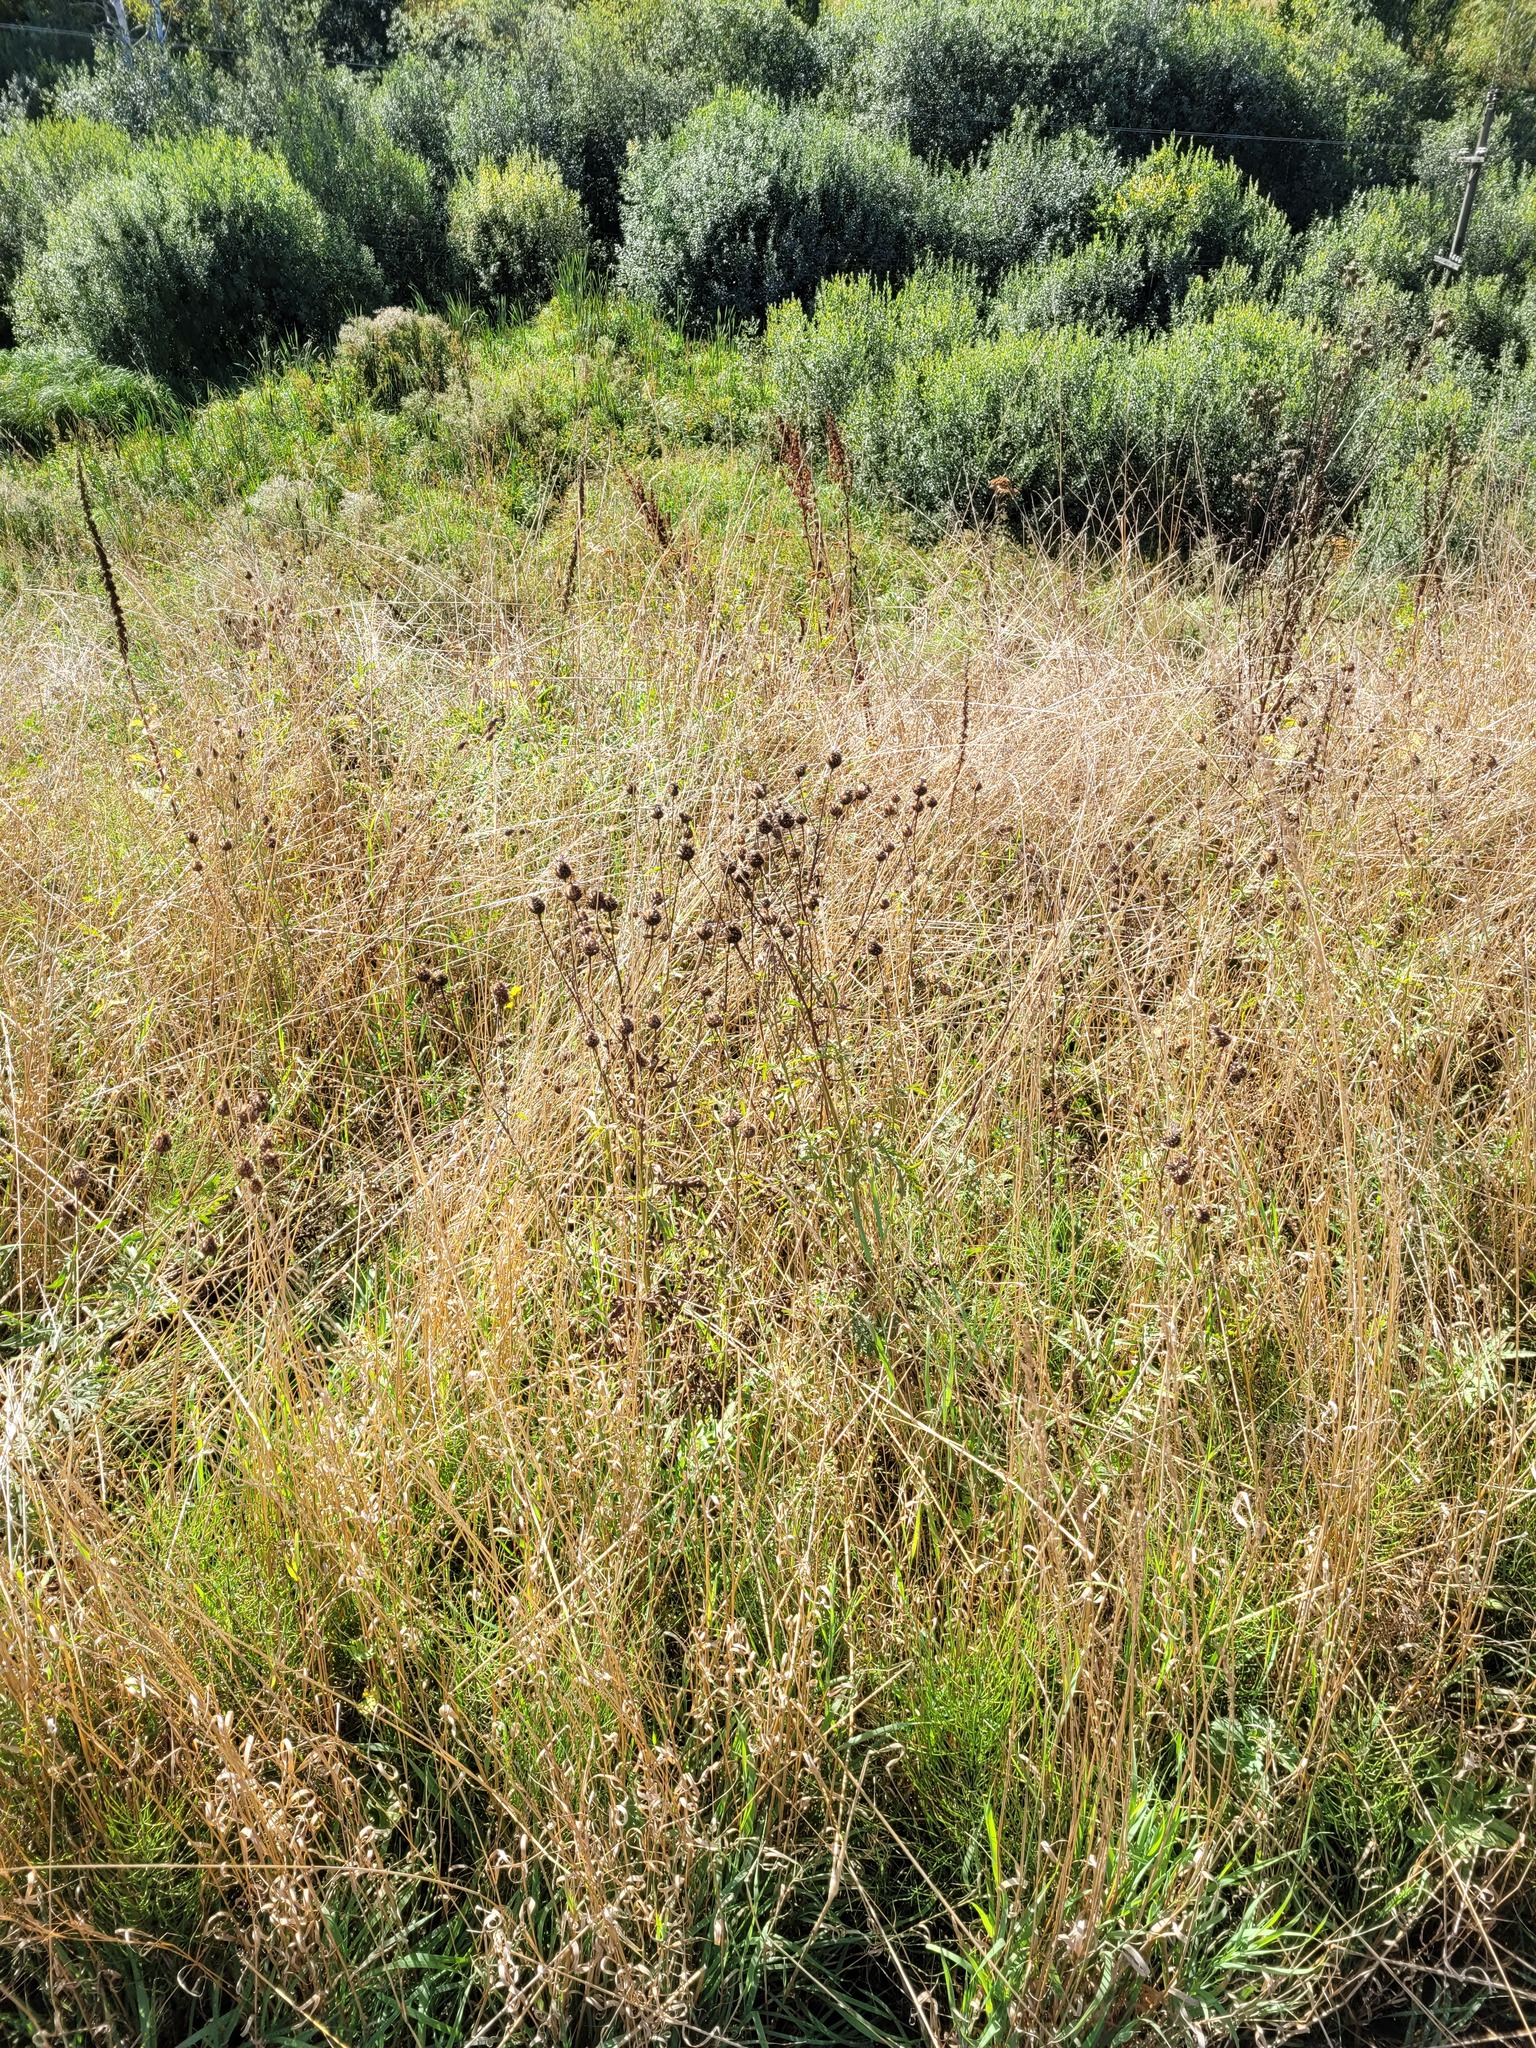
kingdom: Plantae
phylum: Tracheophyta
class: Magnoliopsida
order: Asterales
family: Asteraceae
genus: Centaurea
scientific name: Centaurea scabiosa
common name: Greater knapweed
